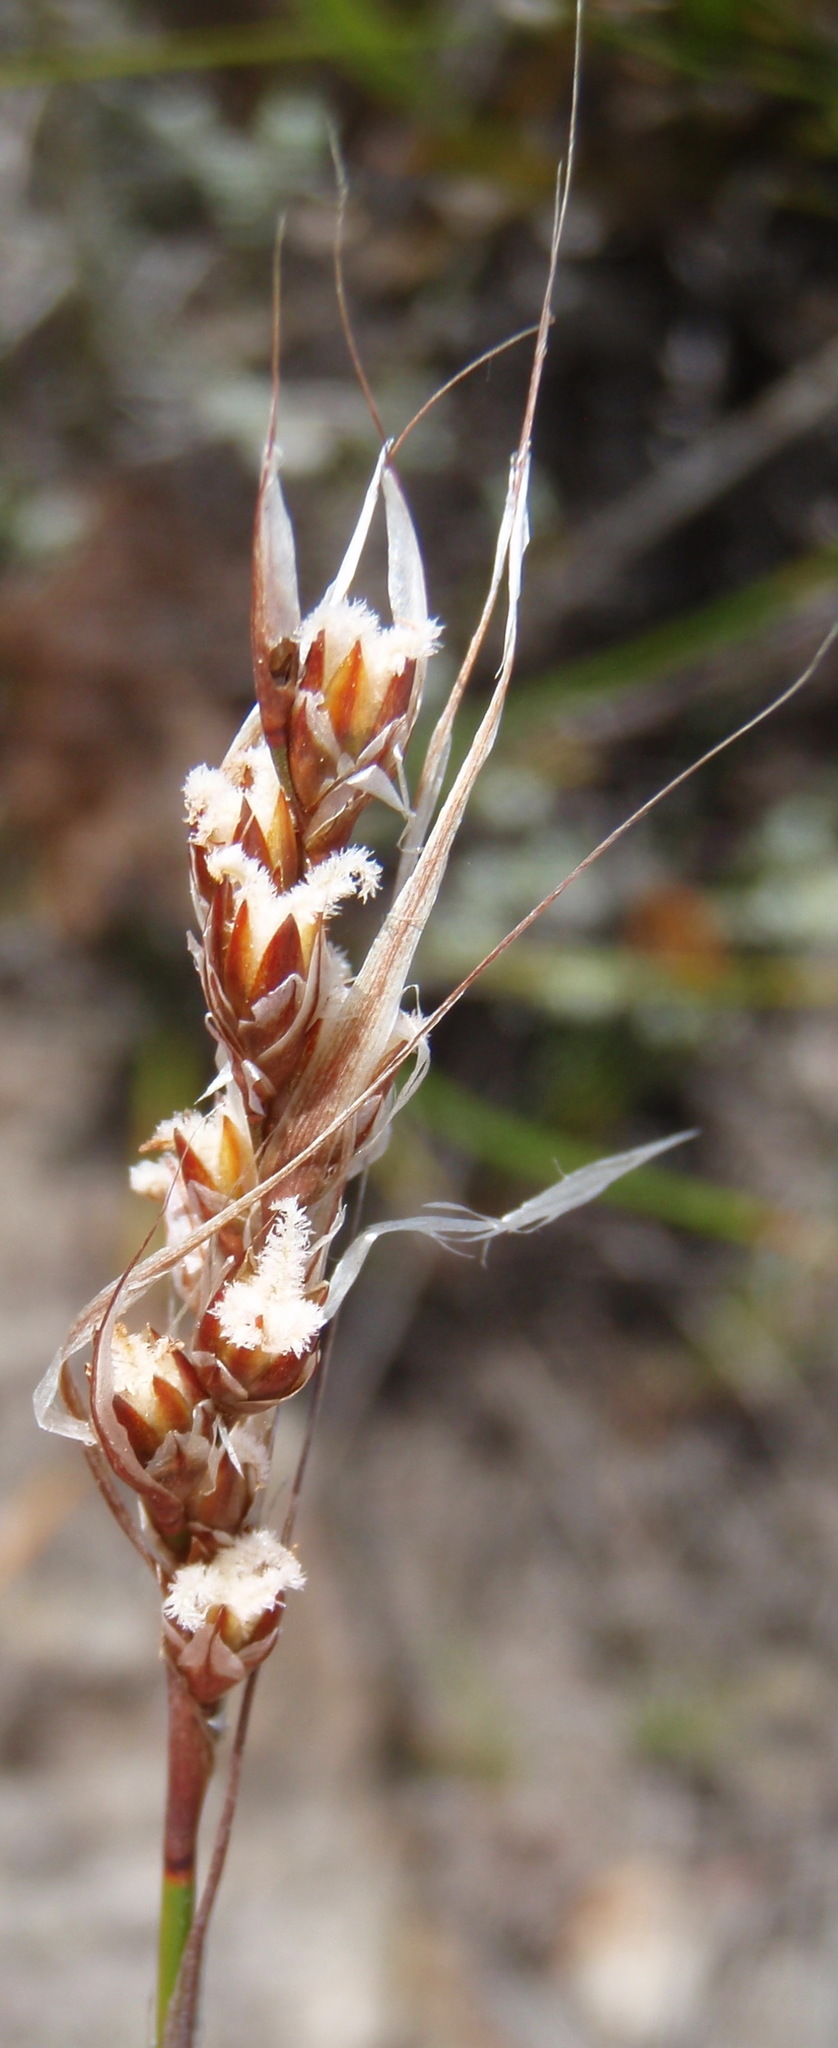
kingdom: Plantae
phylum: Tracheophyta
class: Liliopsida
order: Poales
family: Restionaceae
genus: Rhodocoma
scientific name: Rhodocoma fruticosa
